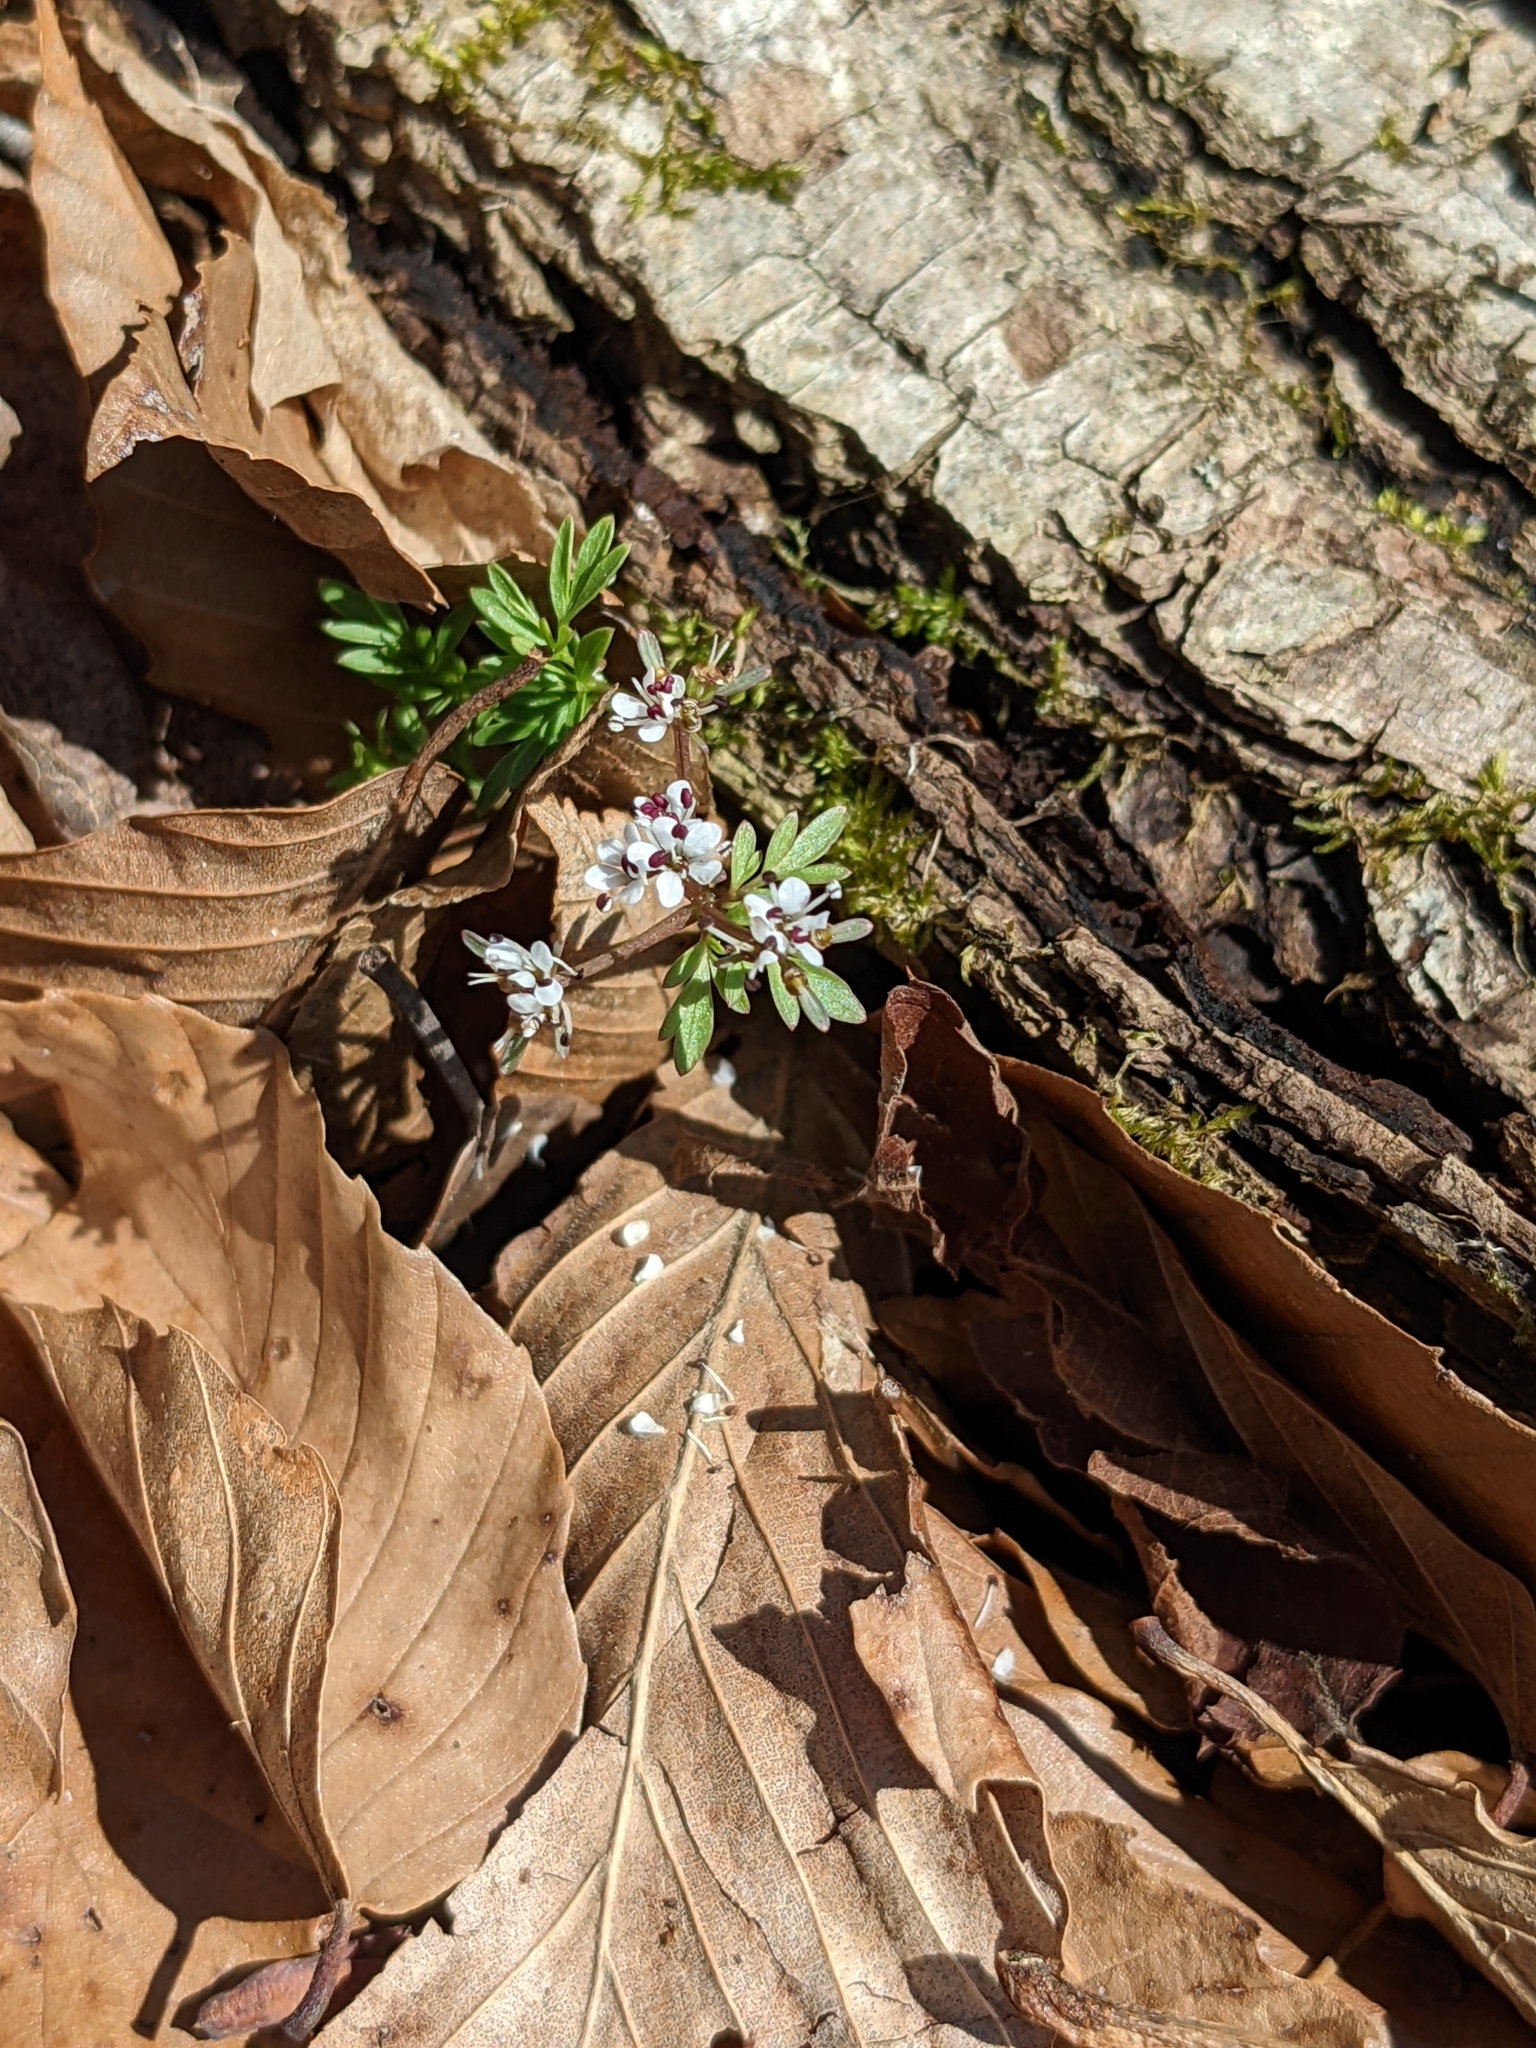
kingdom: Plantae
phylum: Tracheophyta
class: Magnoliopsida
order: Apiales
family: Apiaceae
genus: Erigenia
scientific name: Erigenia bulbosa
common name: Pepper-and-salt
